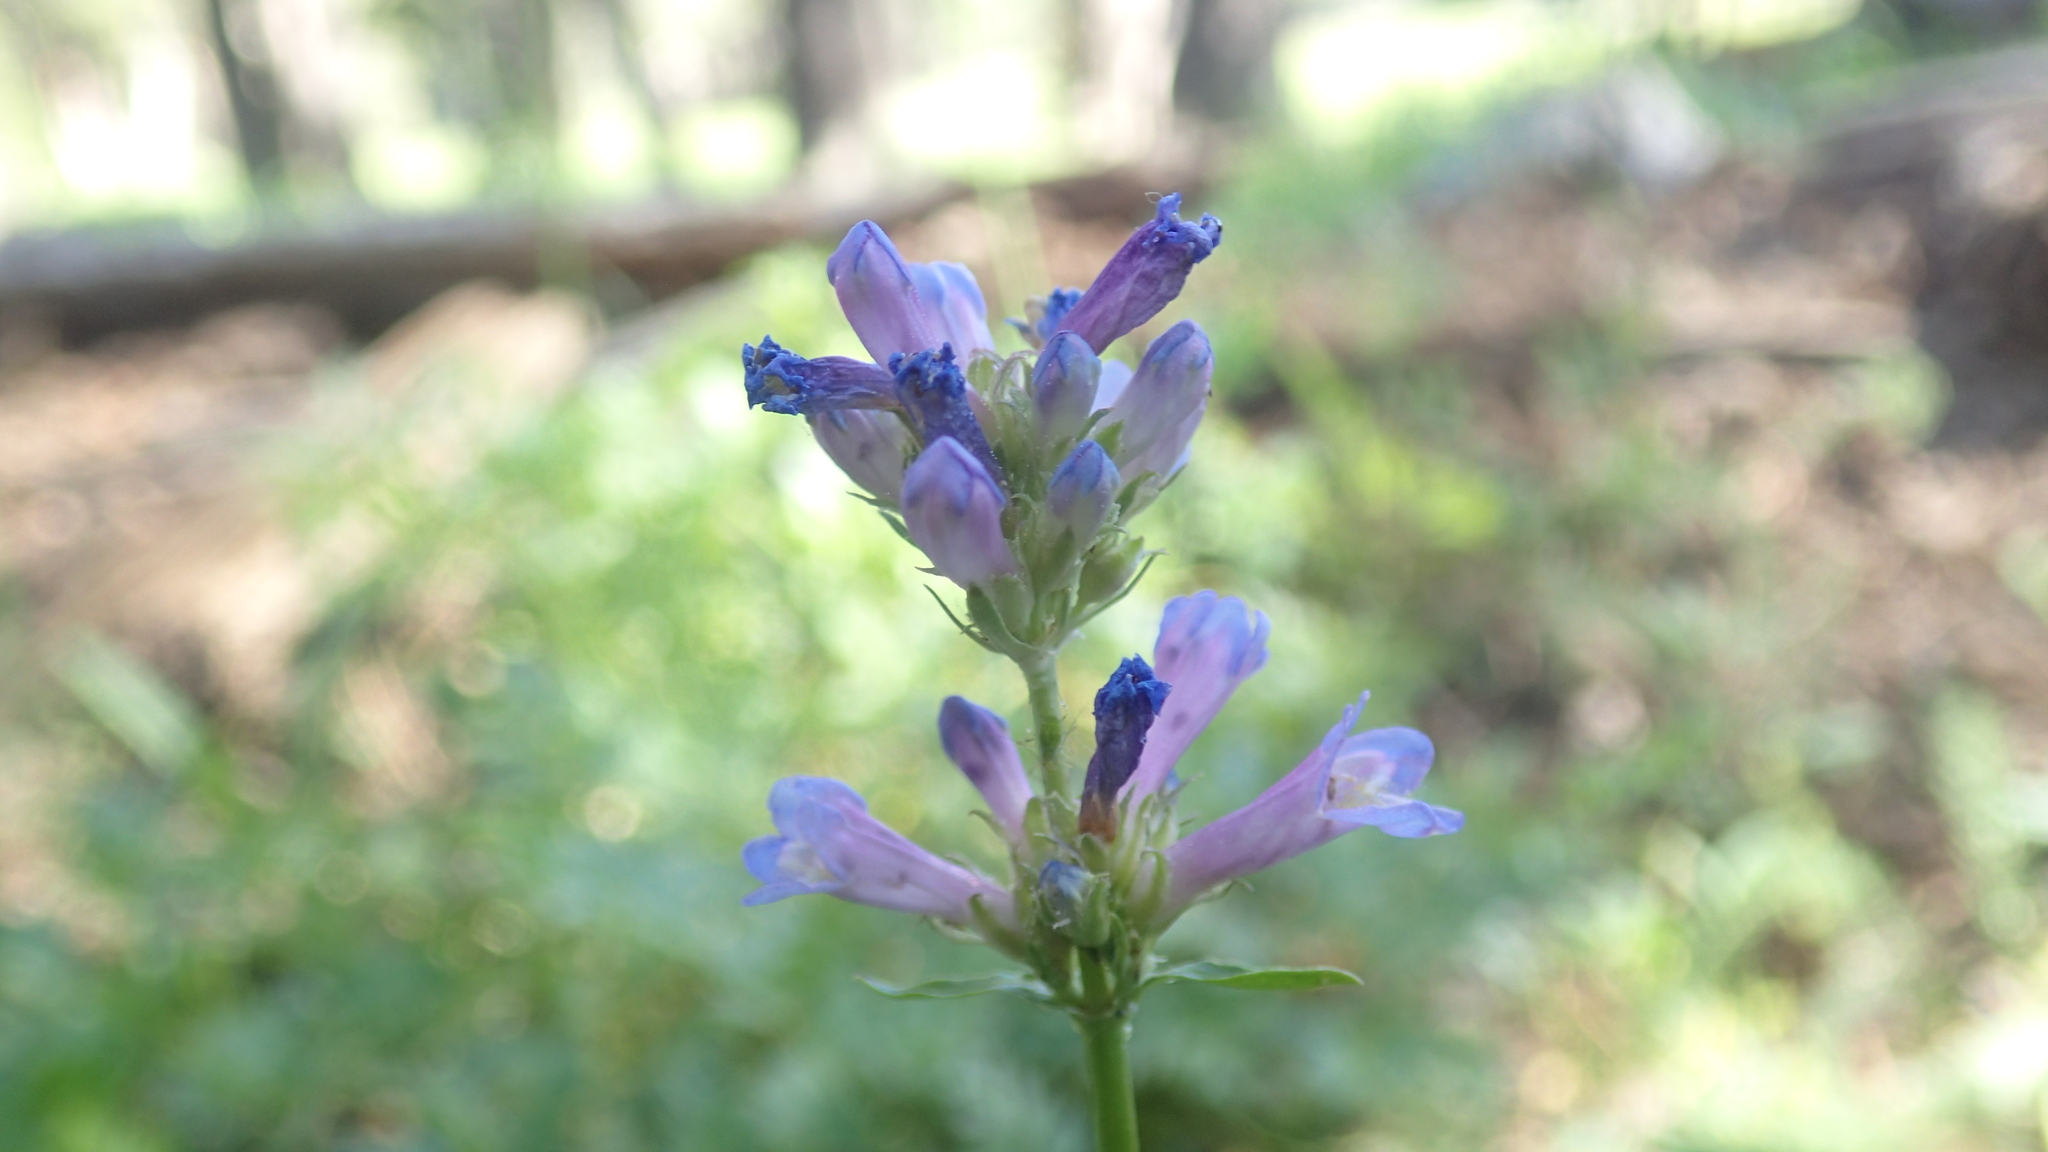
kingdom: Plantae
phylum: Tracheophyta
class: Magnoliopsida
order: Lamiales
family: Plantaginaceae
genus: Penstemon
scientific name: Penstemon rydbergii
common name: Rydberg's beardtongue
